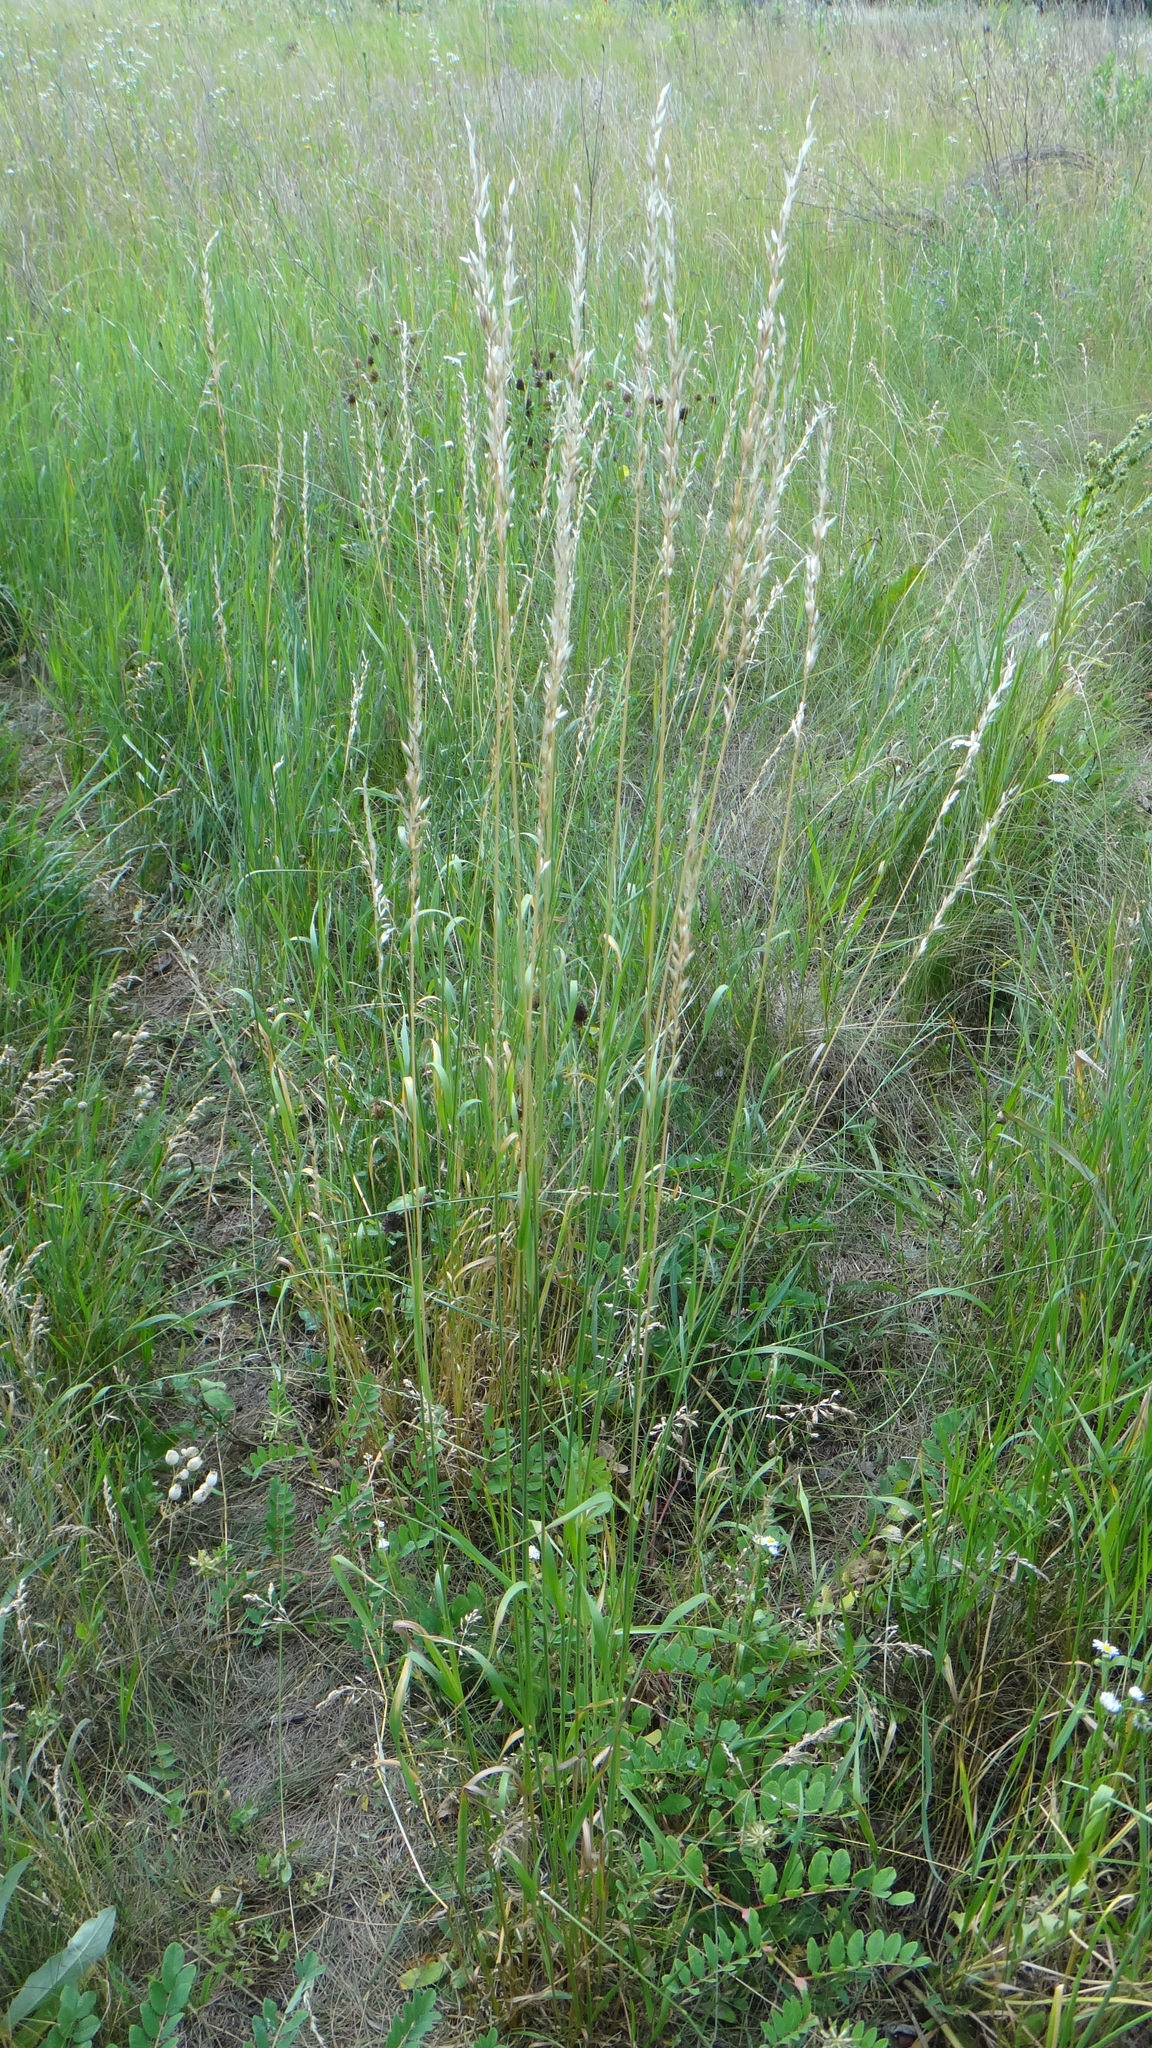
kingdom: Plantae
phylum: Tracheophyta
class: Liliopsida
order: Poales
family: Poaceae
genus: Arrhenatherum
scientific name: Arrhenatherum elatius
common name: Tall oatgrass
